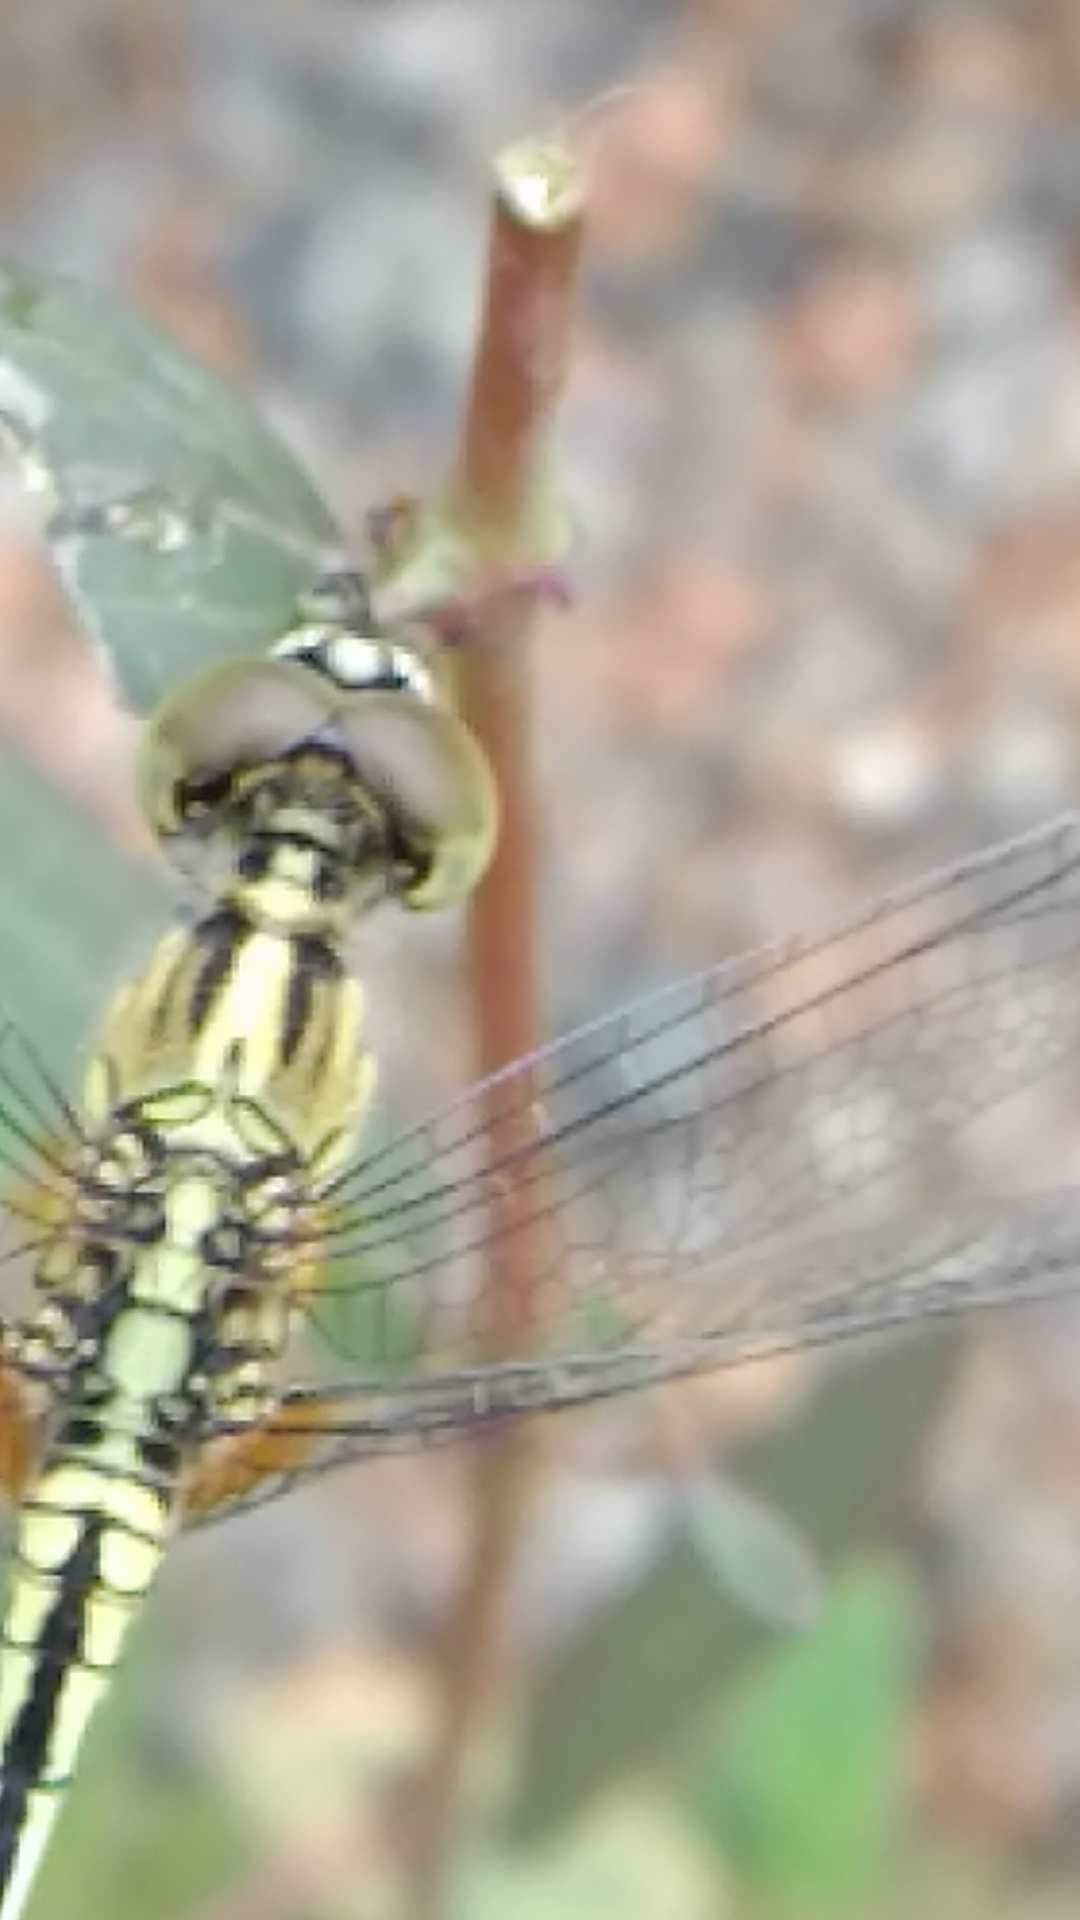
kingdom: Animalia
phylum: Arthropoda
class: Insecta
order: Odonata
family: Libellulidae
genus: Diplacodes
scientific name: Diplacodes trivialis
